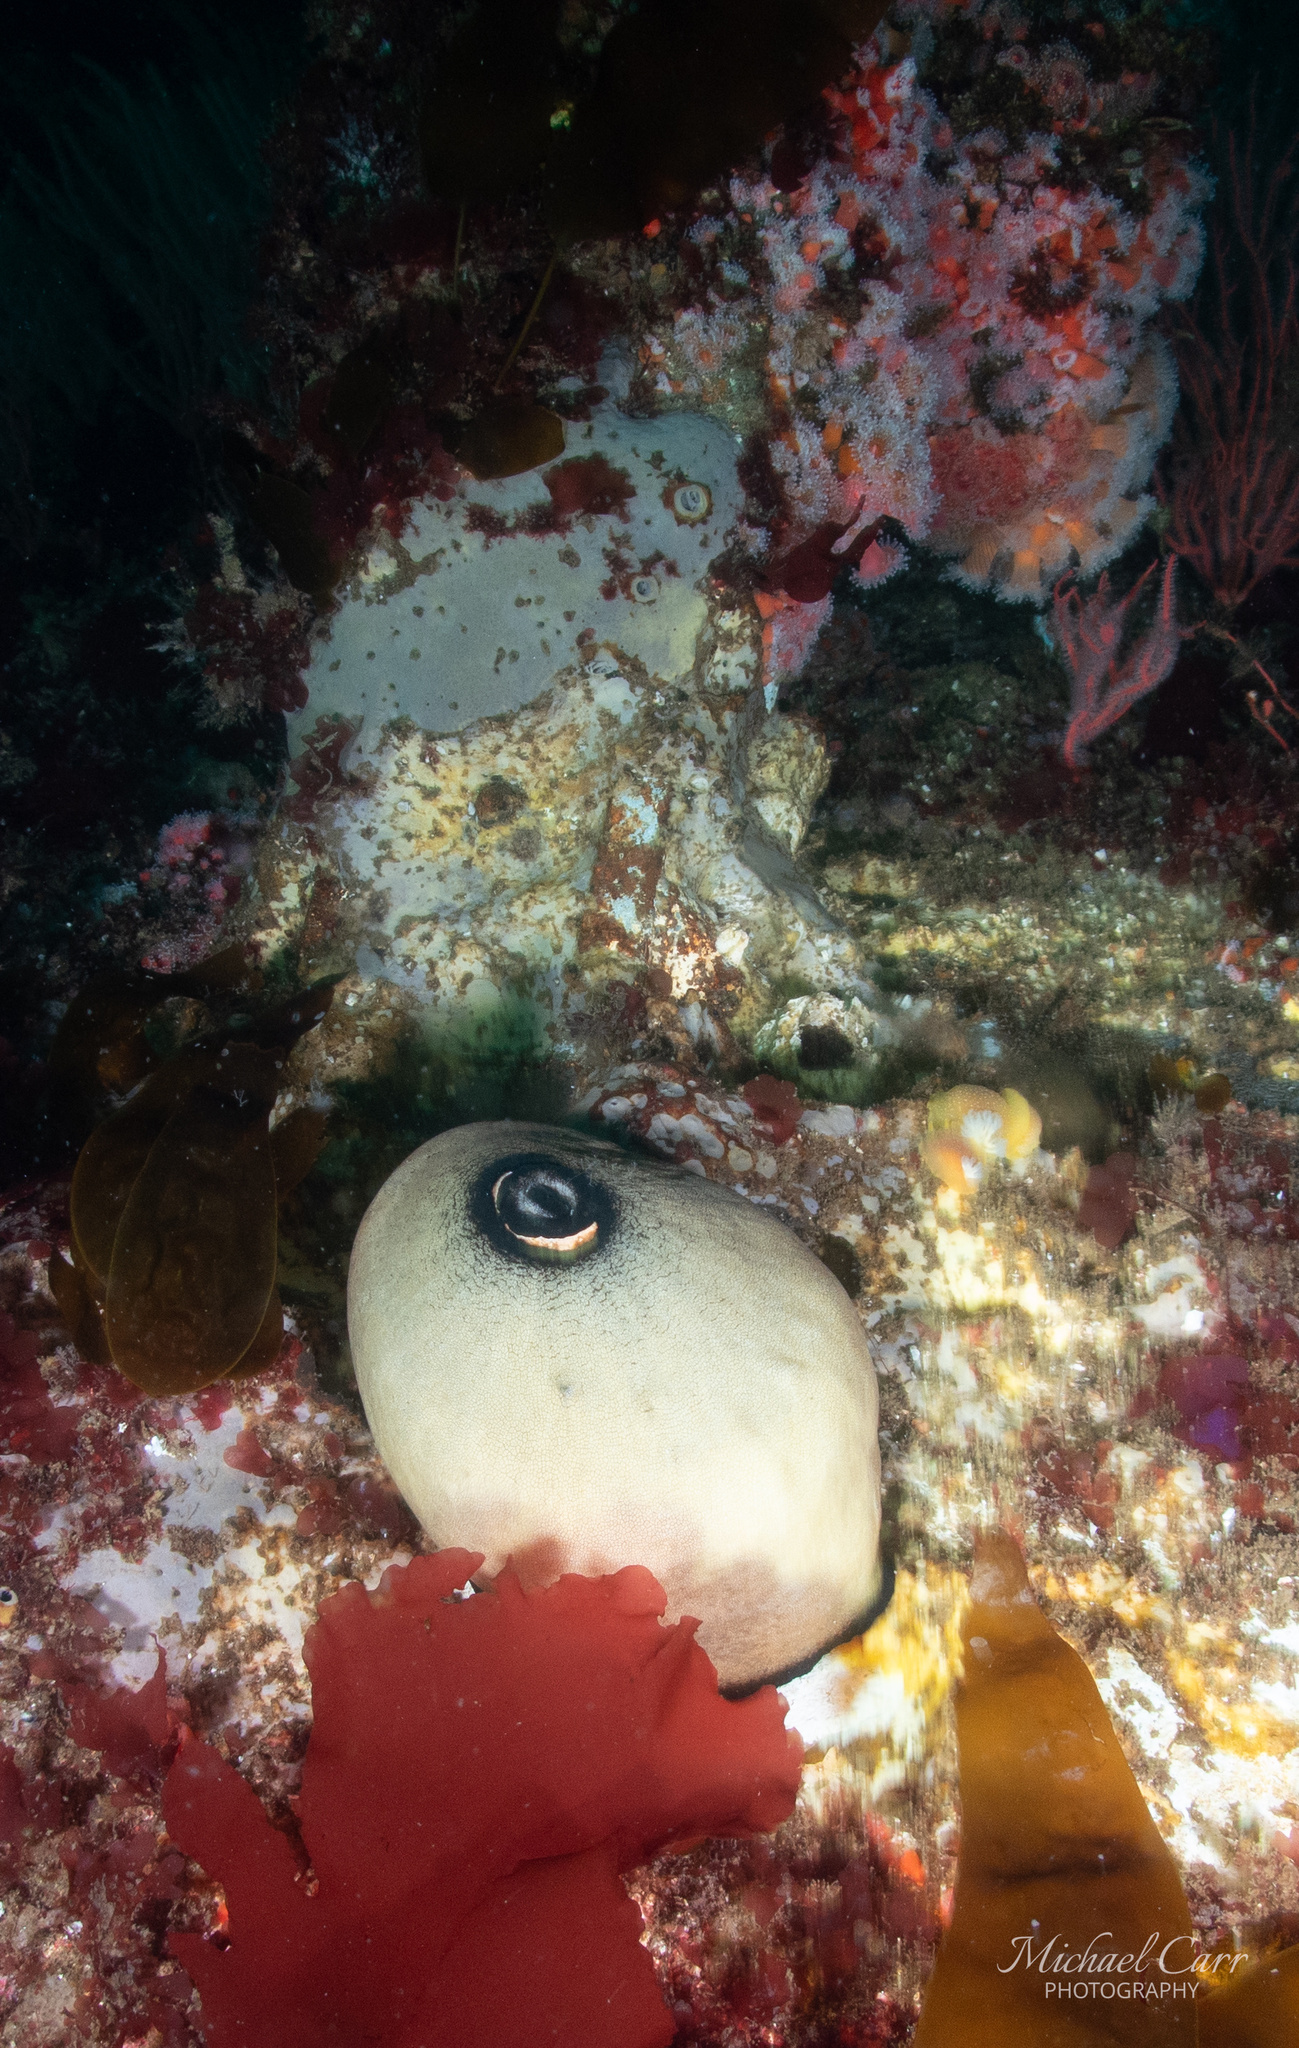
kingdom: Animalia
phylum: Mollusca
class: Gastropoda
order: Lepetellida
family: Fissurellidae
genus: Megathura
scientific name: Megathura crenulata
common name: Giant keyhole limpet
